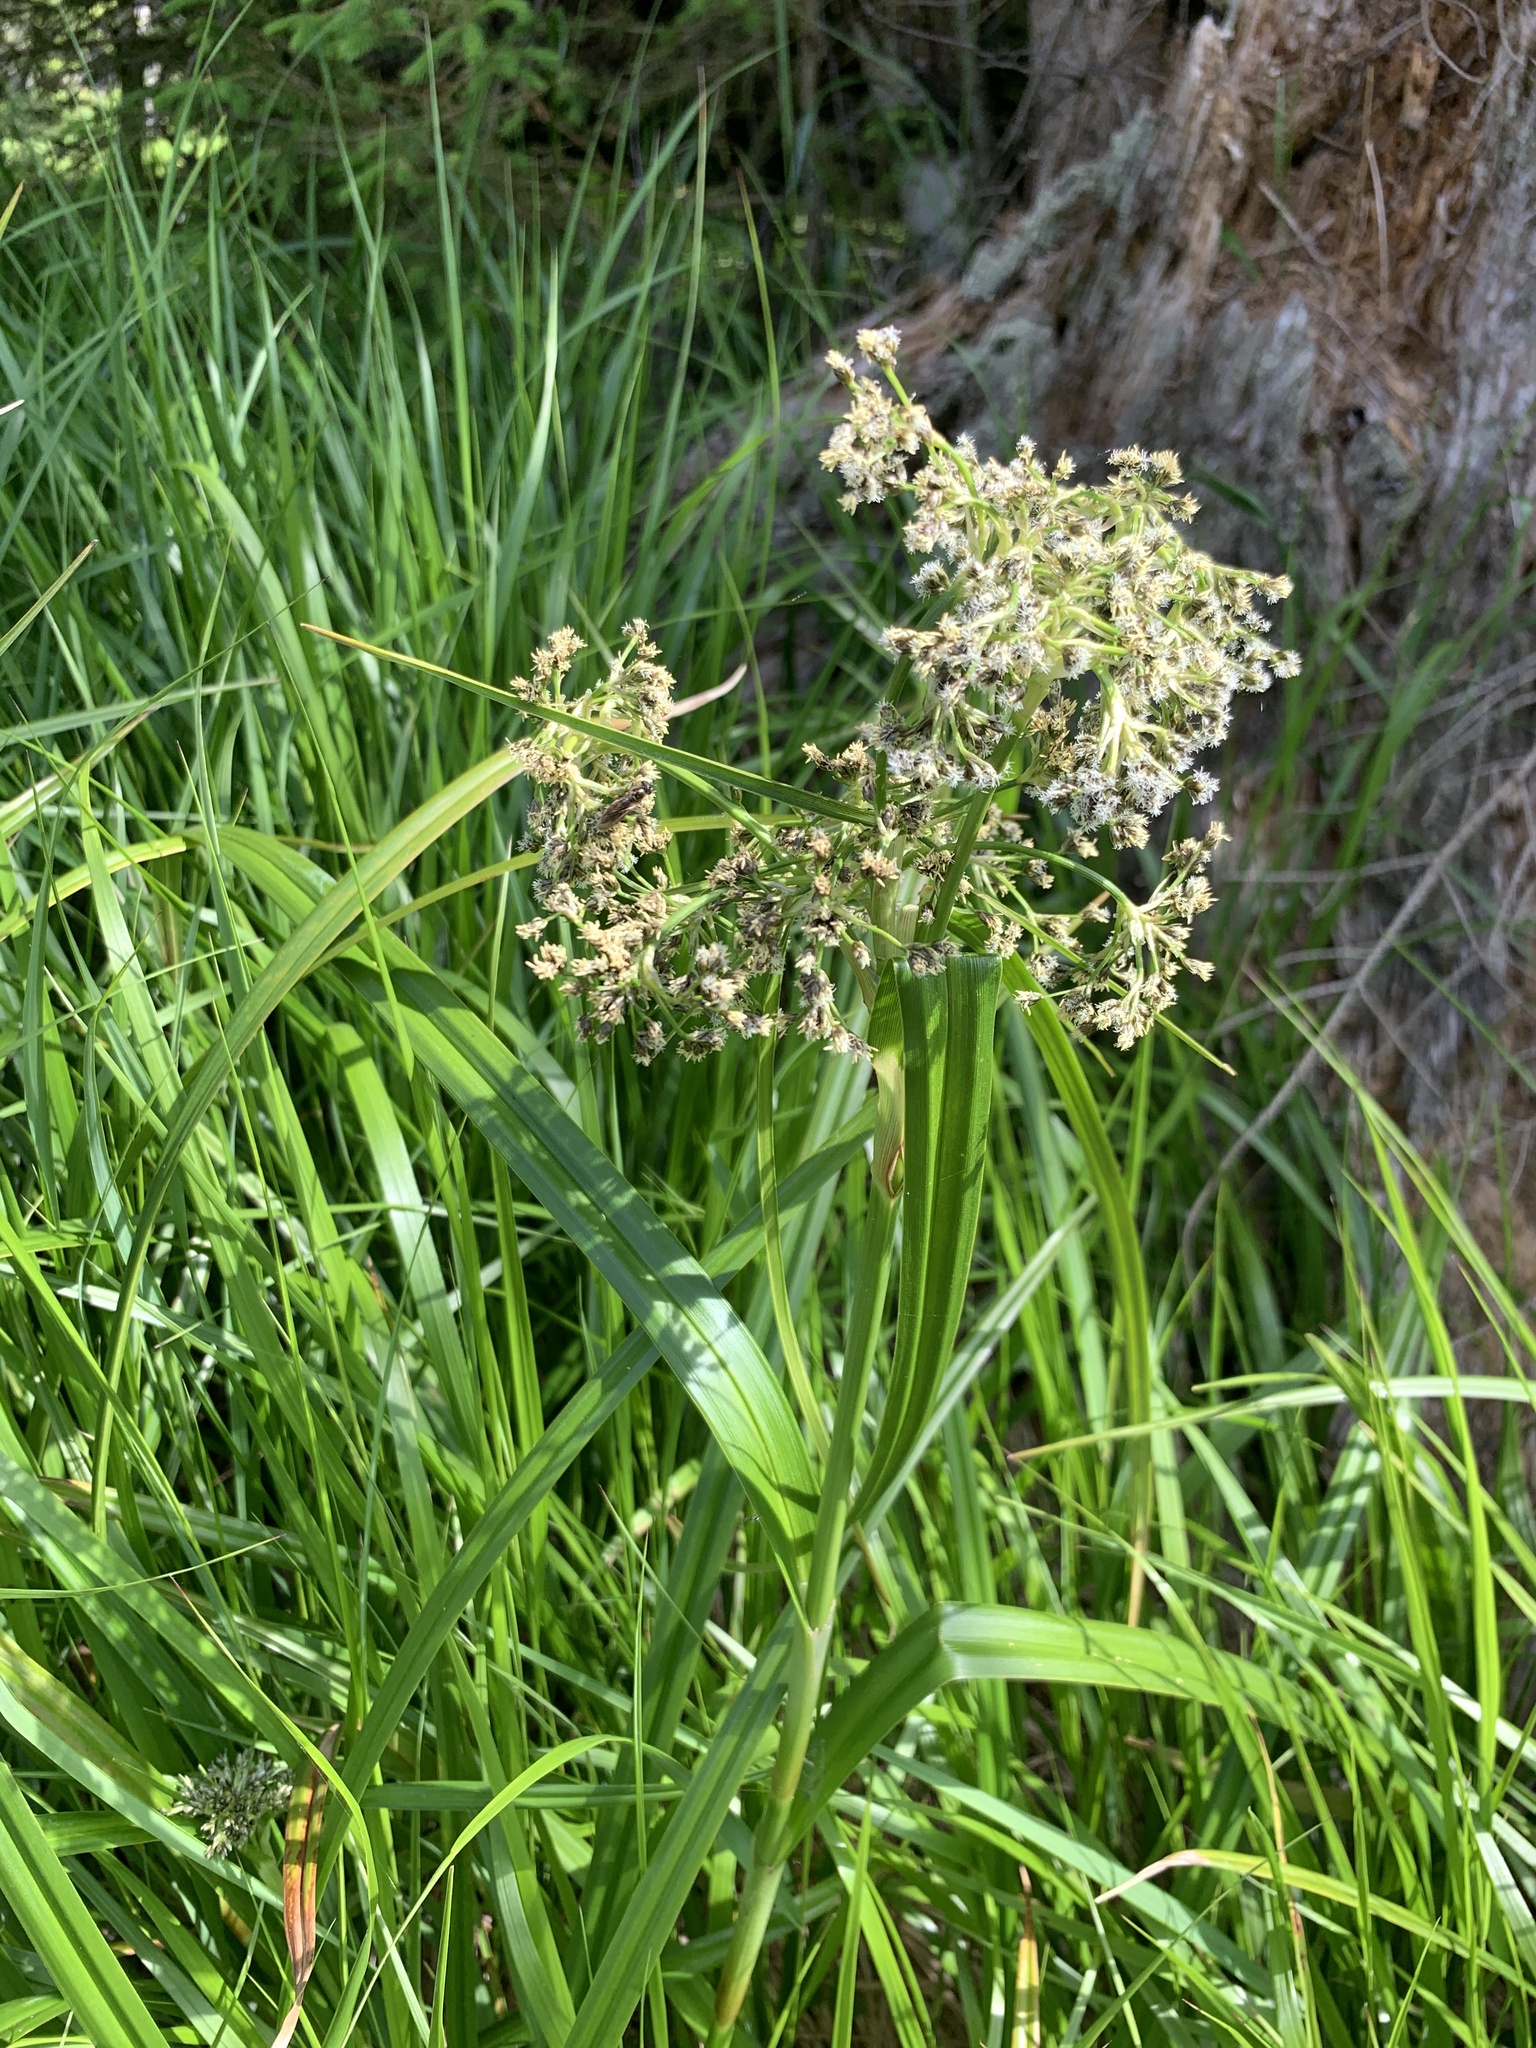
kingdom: Plantae
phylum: Tracheophyta
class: Liliopsida
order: Poales
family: Cyperaceae
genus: Scirpus
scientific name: Scirpus sylvaticus
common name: Wood club-rush
